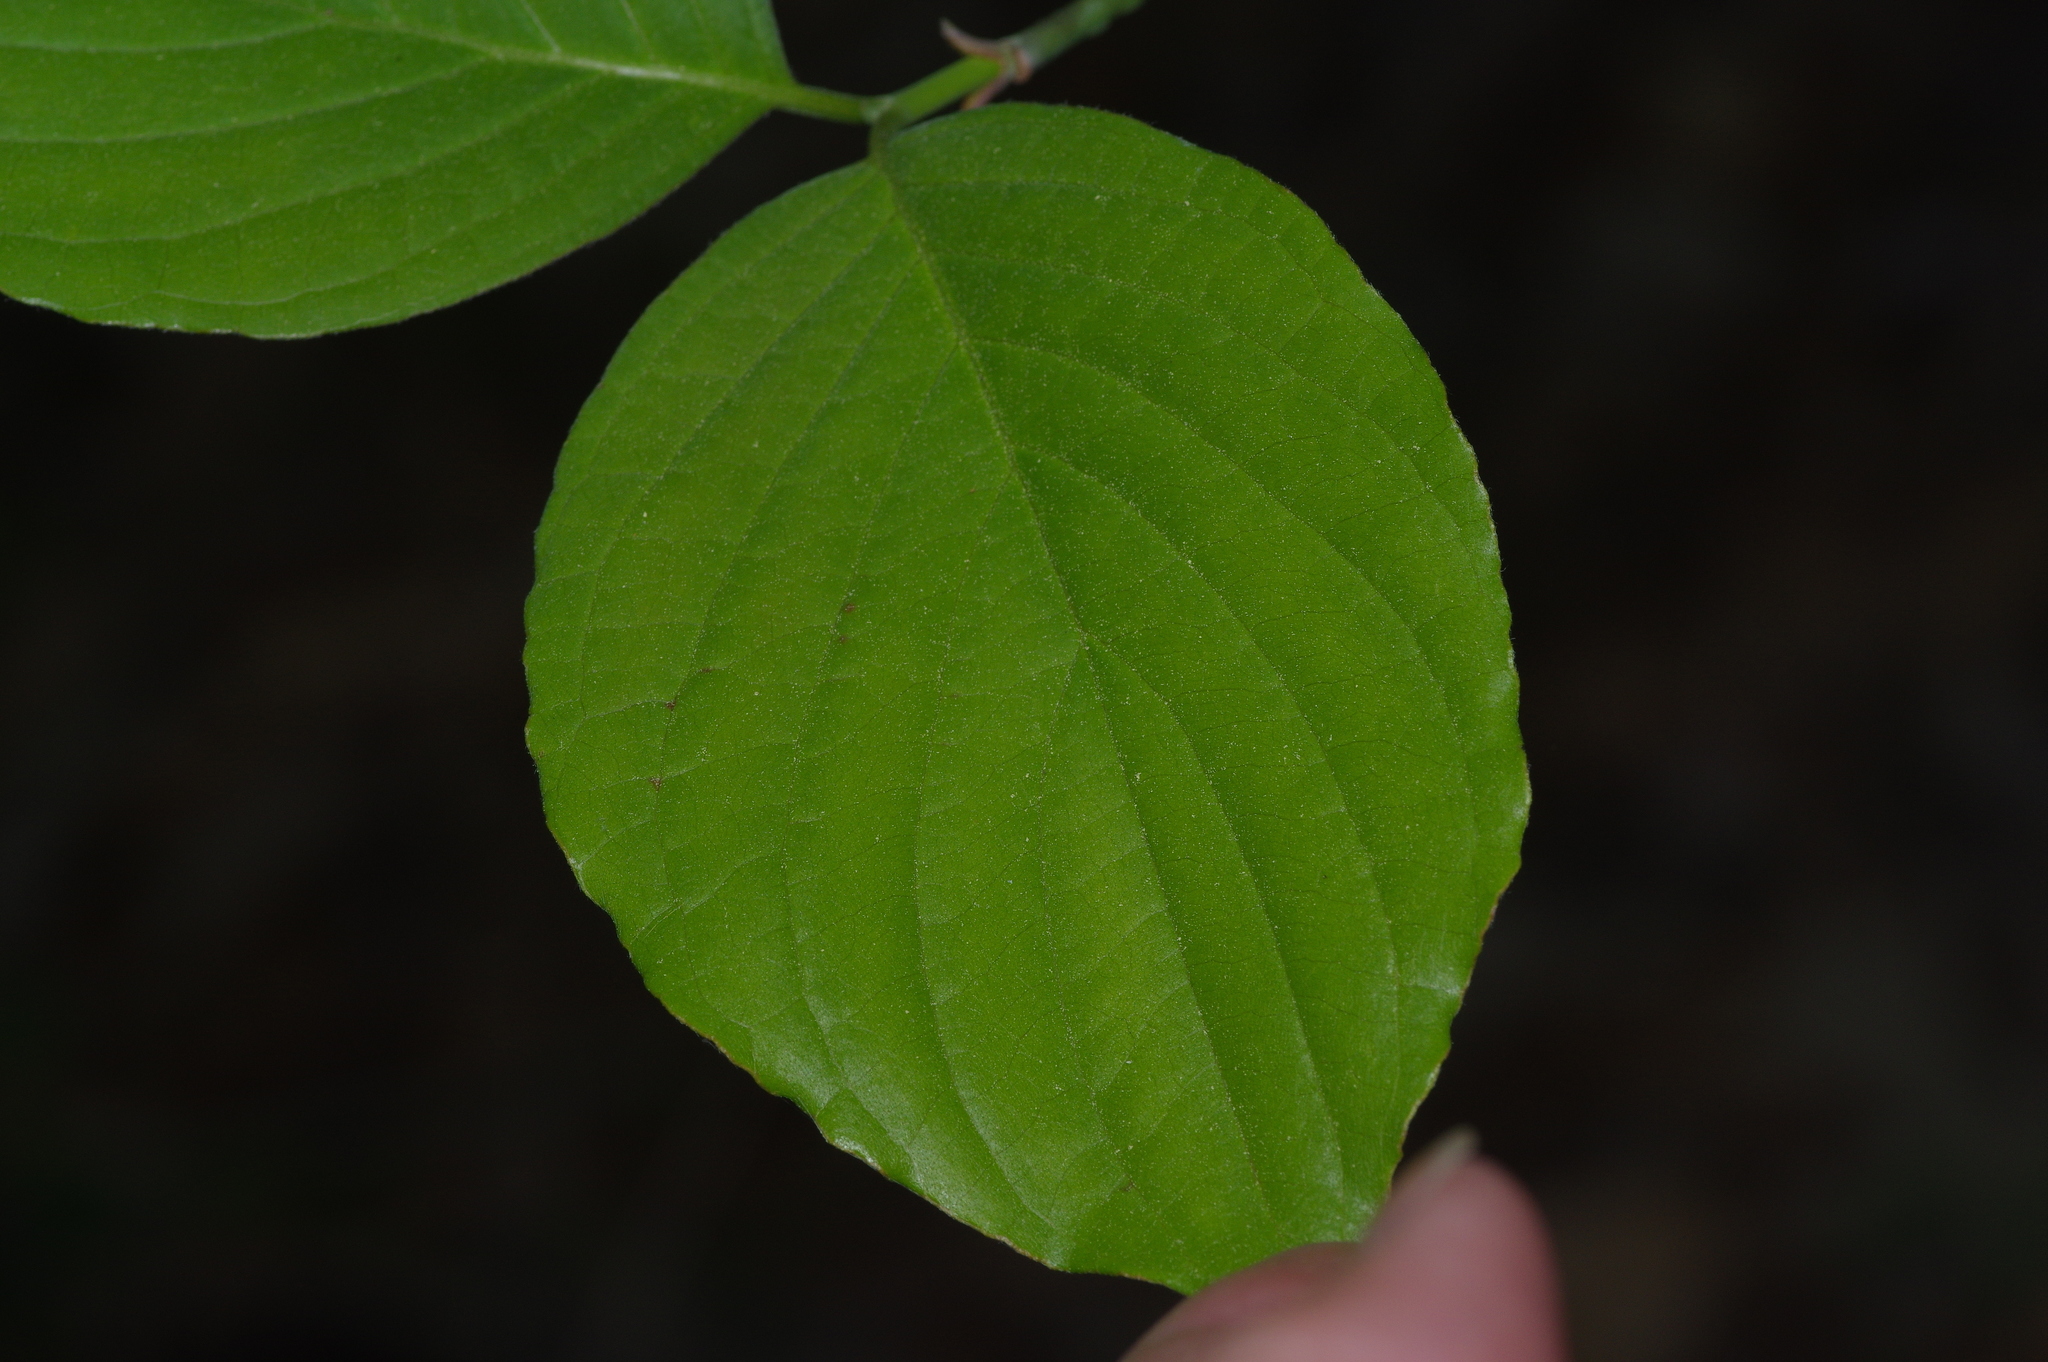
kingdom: Plantae
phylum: Tracheophyta
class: Magnoliopsida
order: Cornales
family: Cornaceae
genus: Cornus
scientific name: Cornus florida
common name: Flowering dogwood
